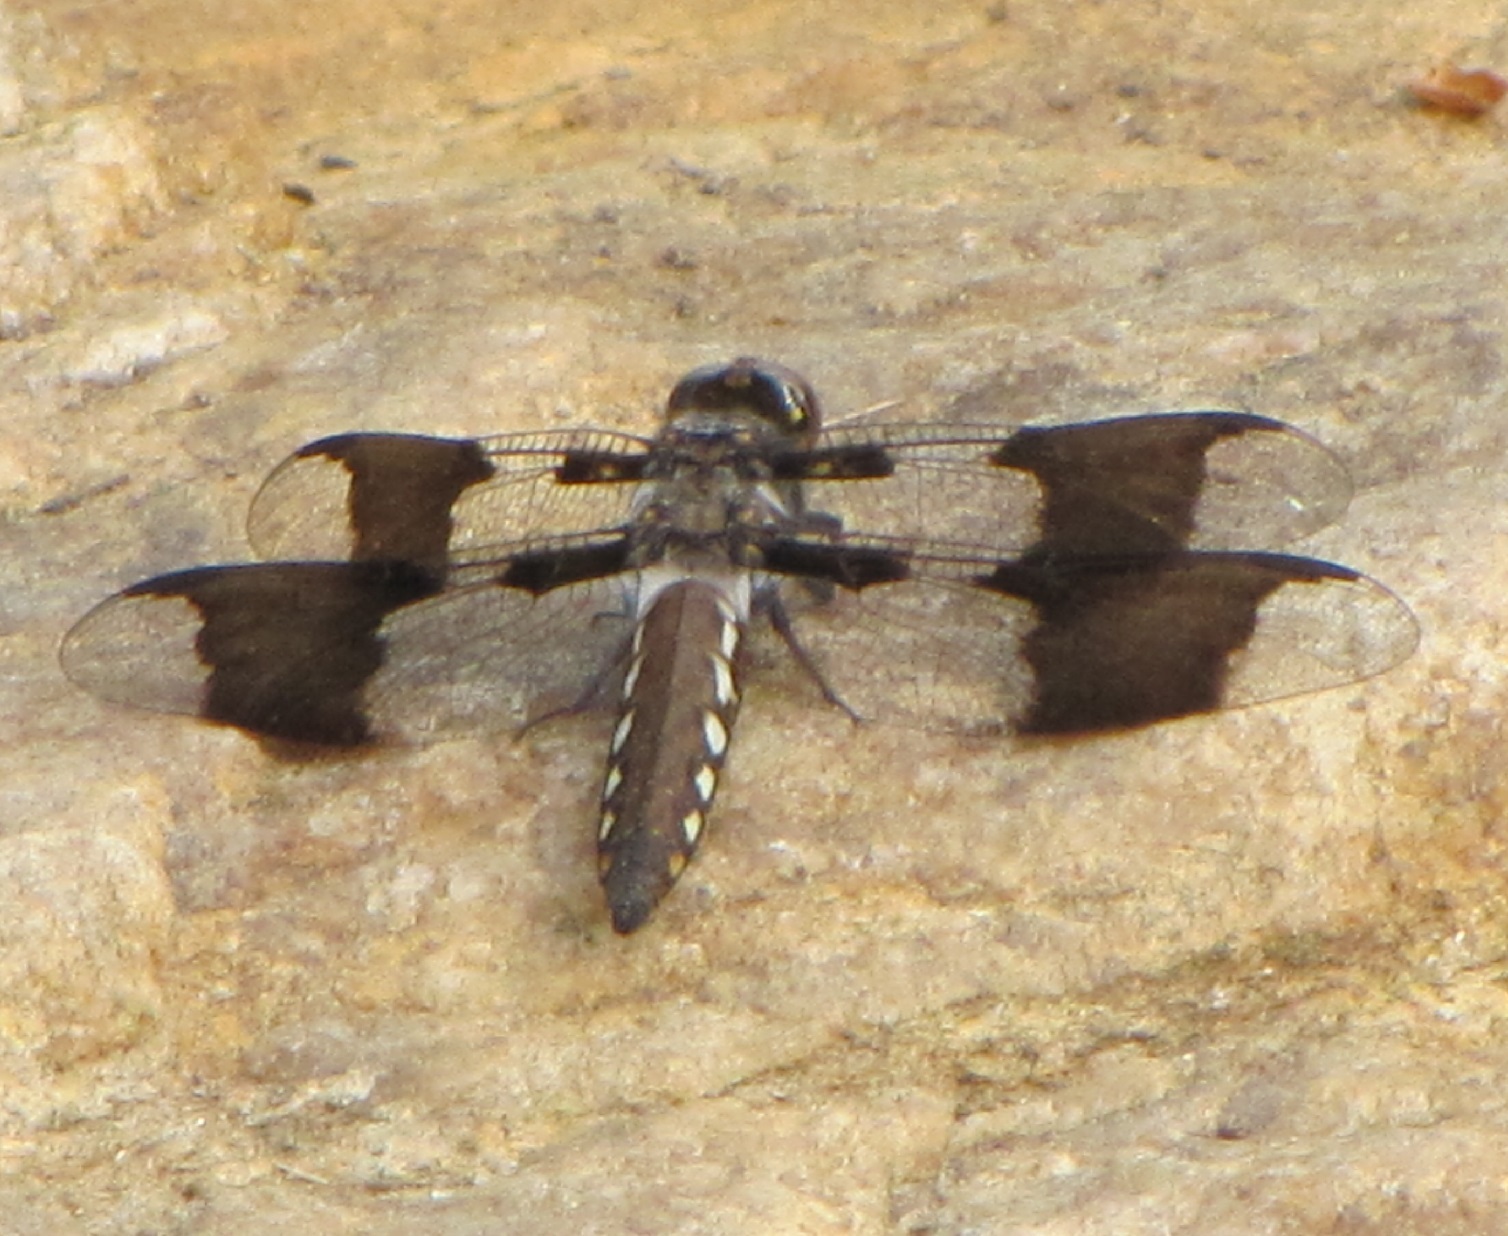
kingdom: Animalia
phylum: Arthropoda
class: Insecta
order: Odonata
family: Libellulidae
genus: Plathemis
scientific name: Plathemis lydia
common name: Common whitetail
